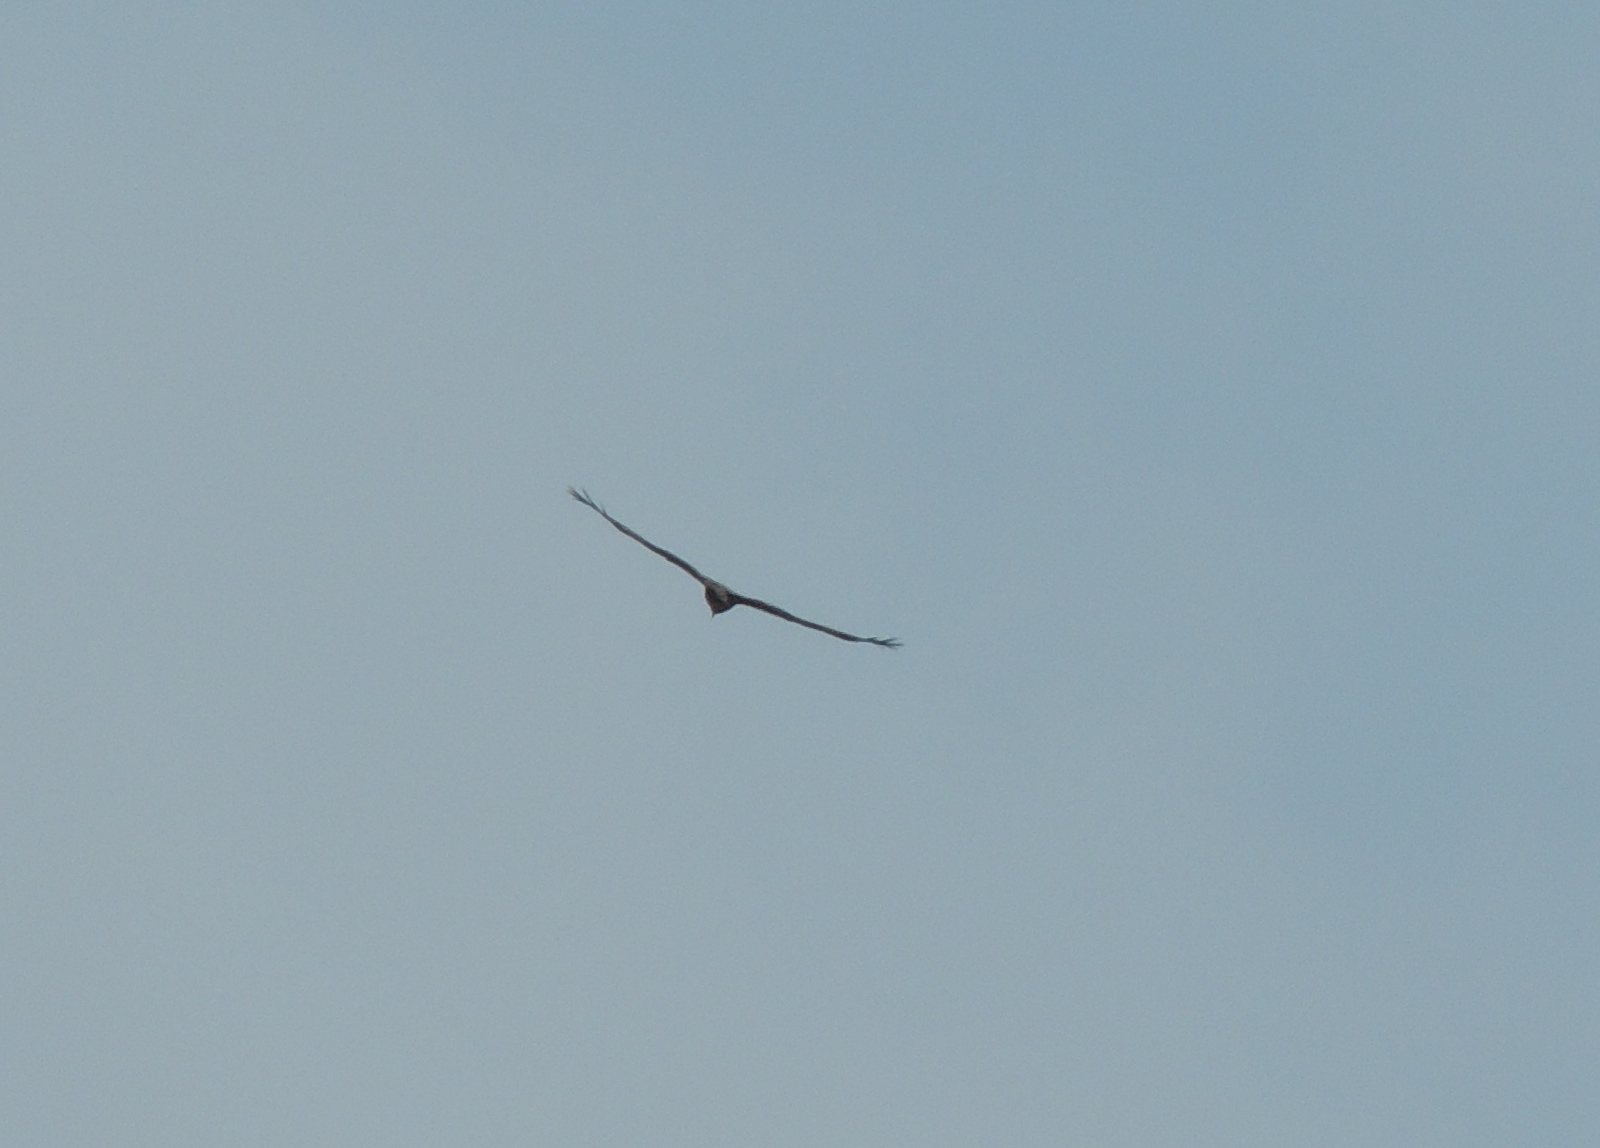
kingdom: Animalia
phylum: Chordata
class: Aves
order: Accipitriformes
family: Accipitridae
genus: Milvus
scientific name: Milvus migrans
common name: Black kite
